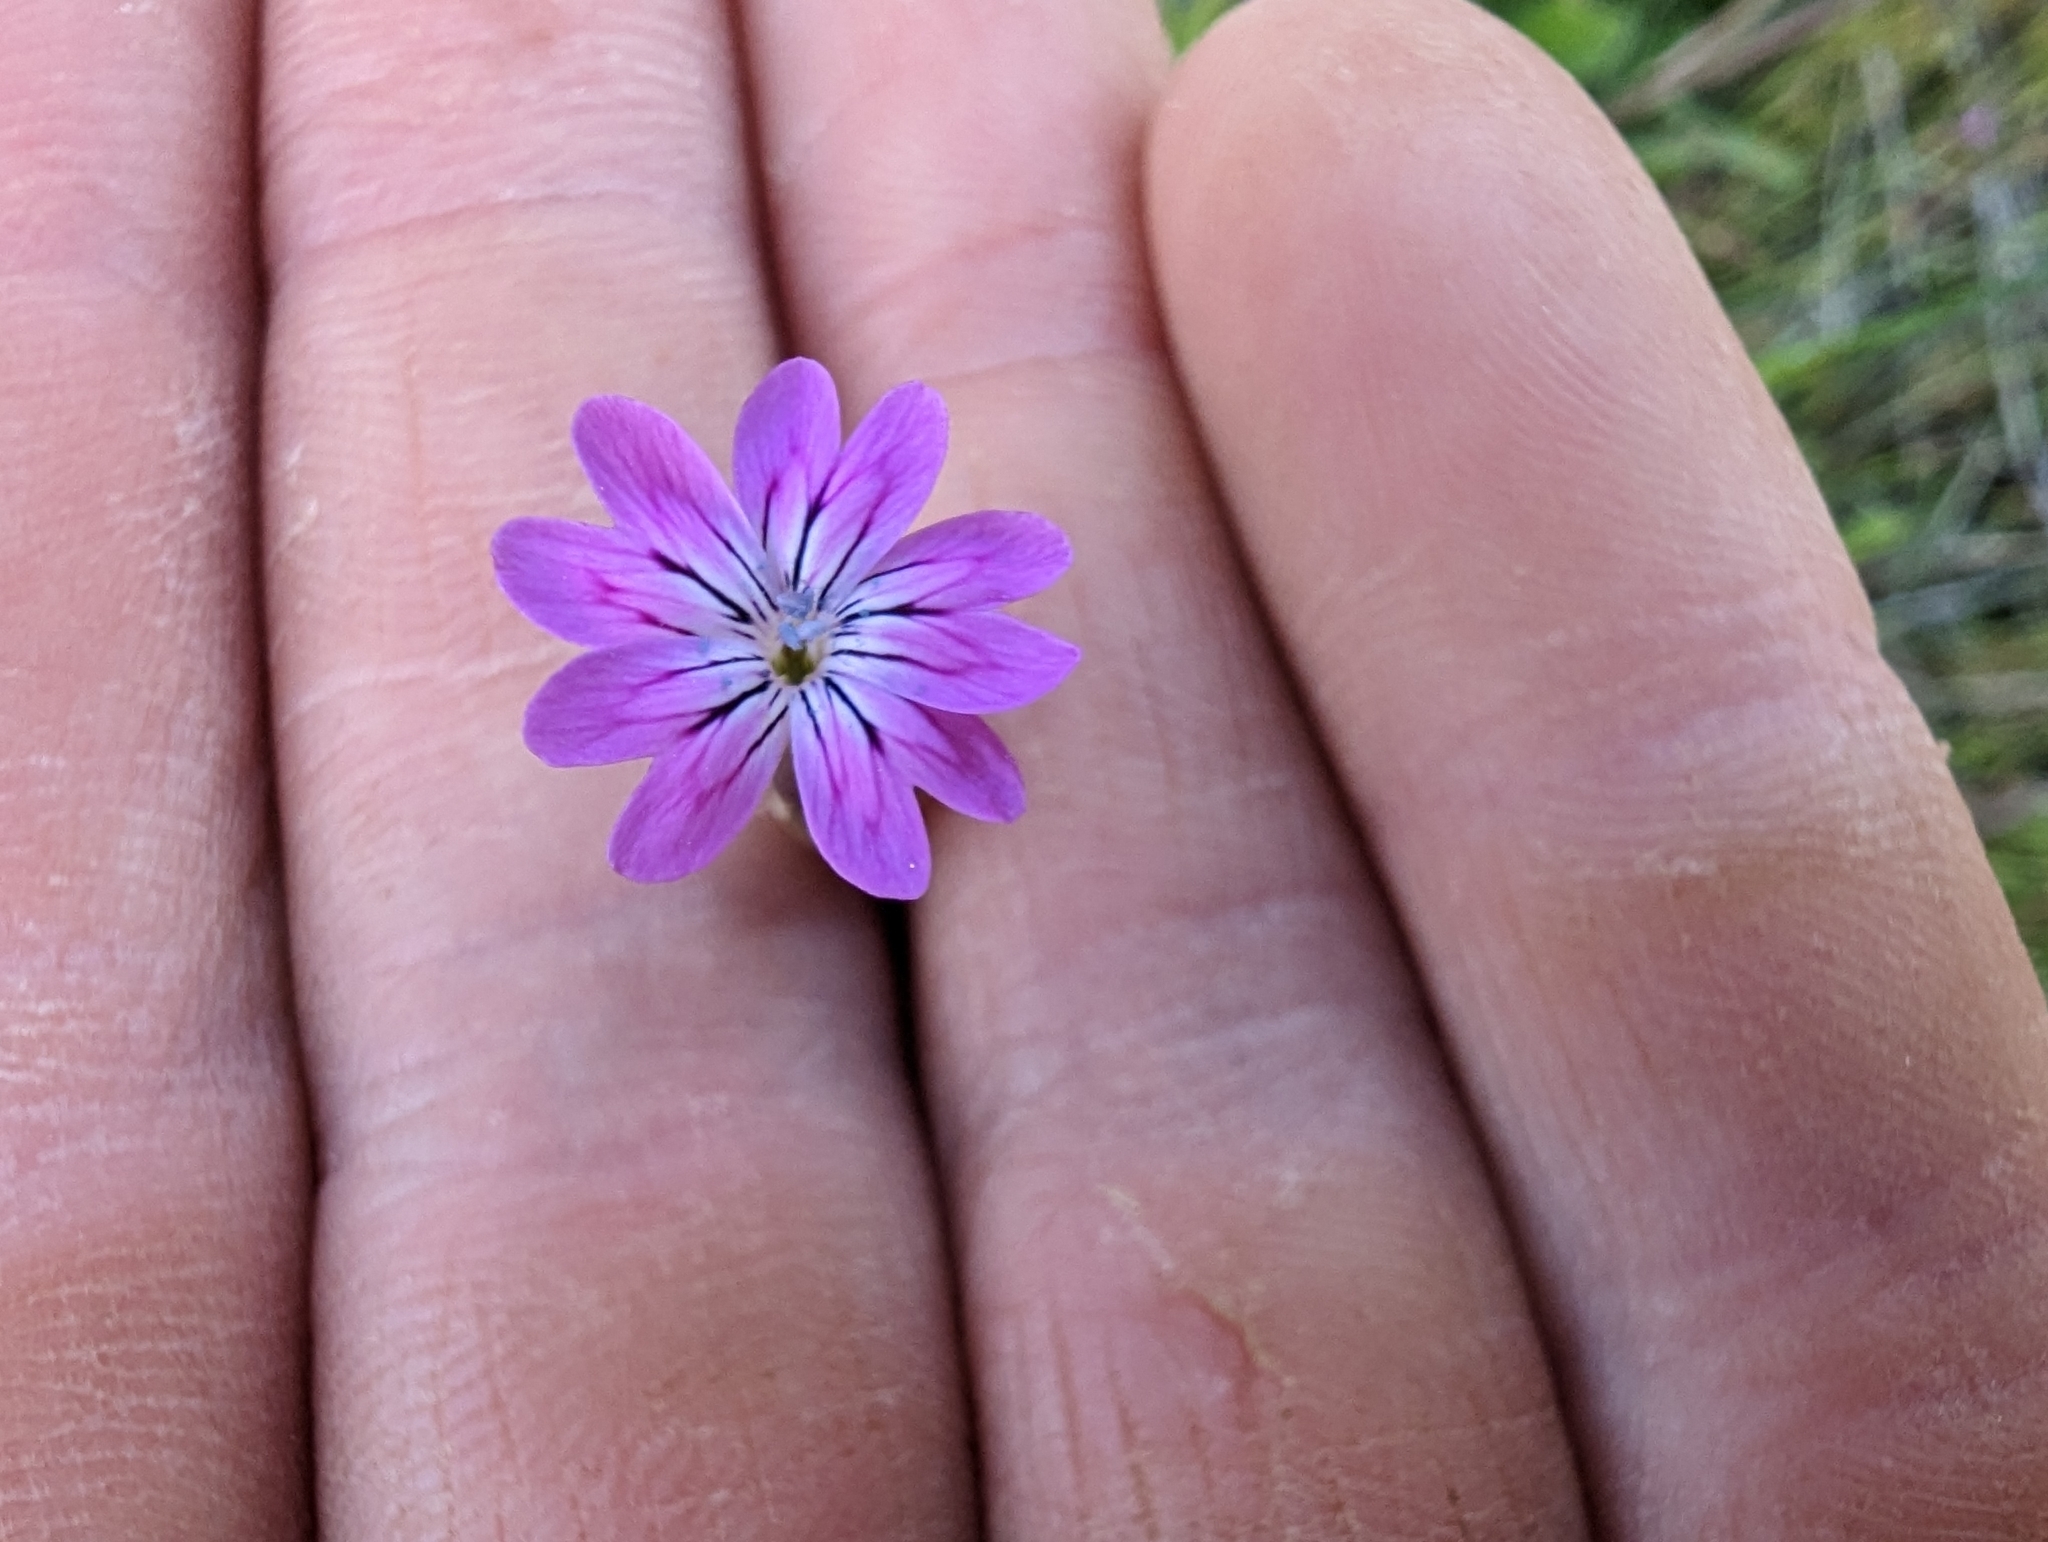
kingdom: Plantae
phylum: Tracheophyta
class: Magnoliopsida
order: Caryophyllales
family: Caryophyllaceae
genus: Petrorhagia
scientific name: Petrorhagia dubia
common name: Hairypink
